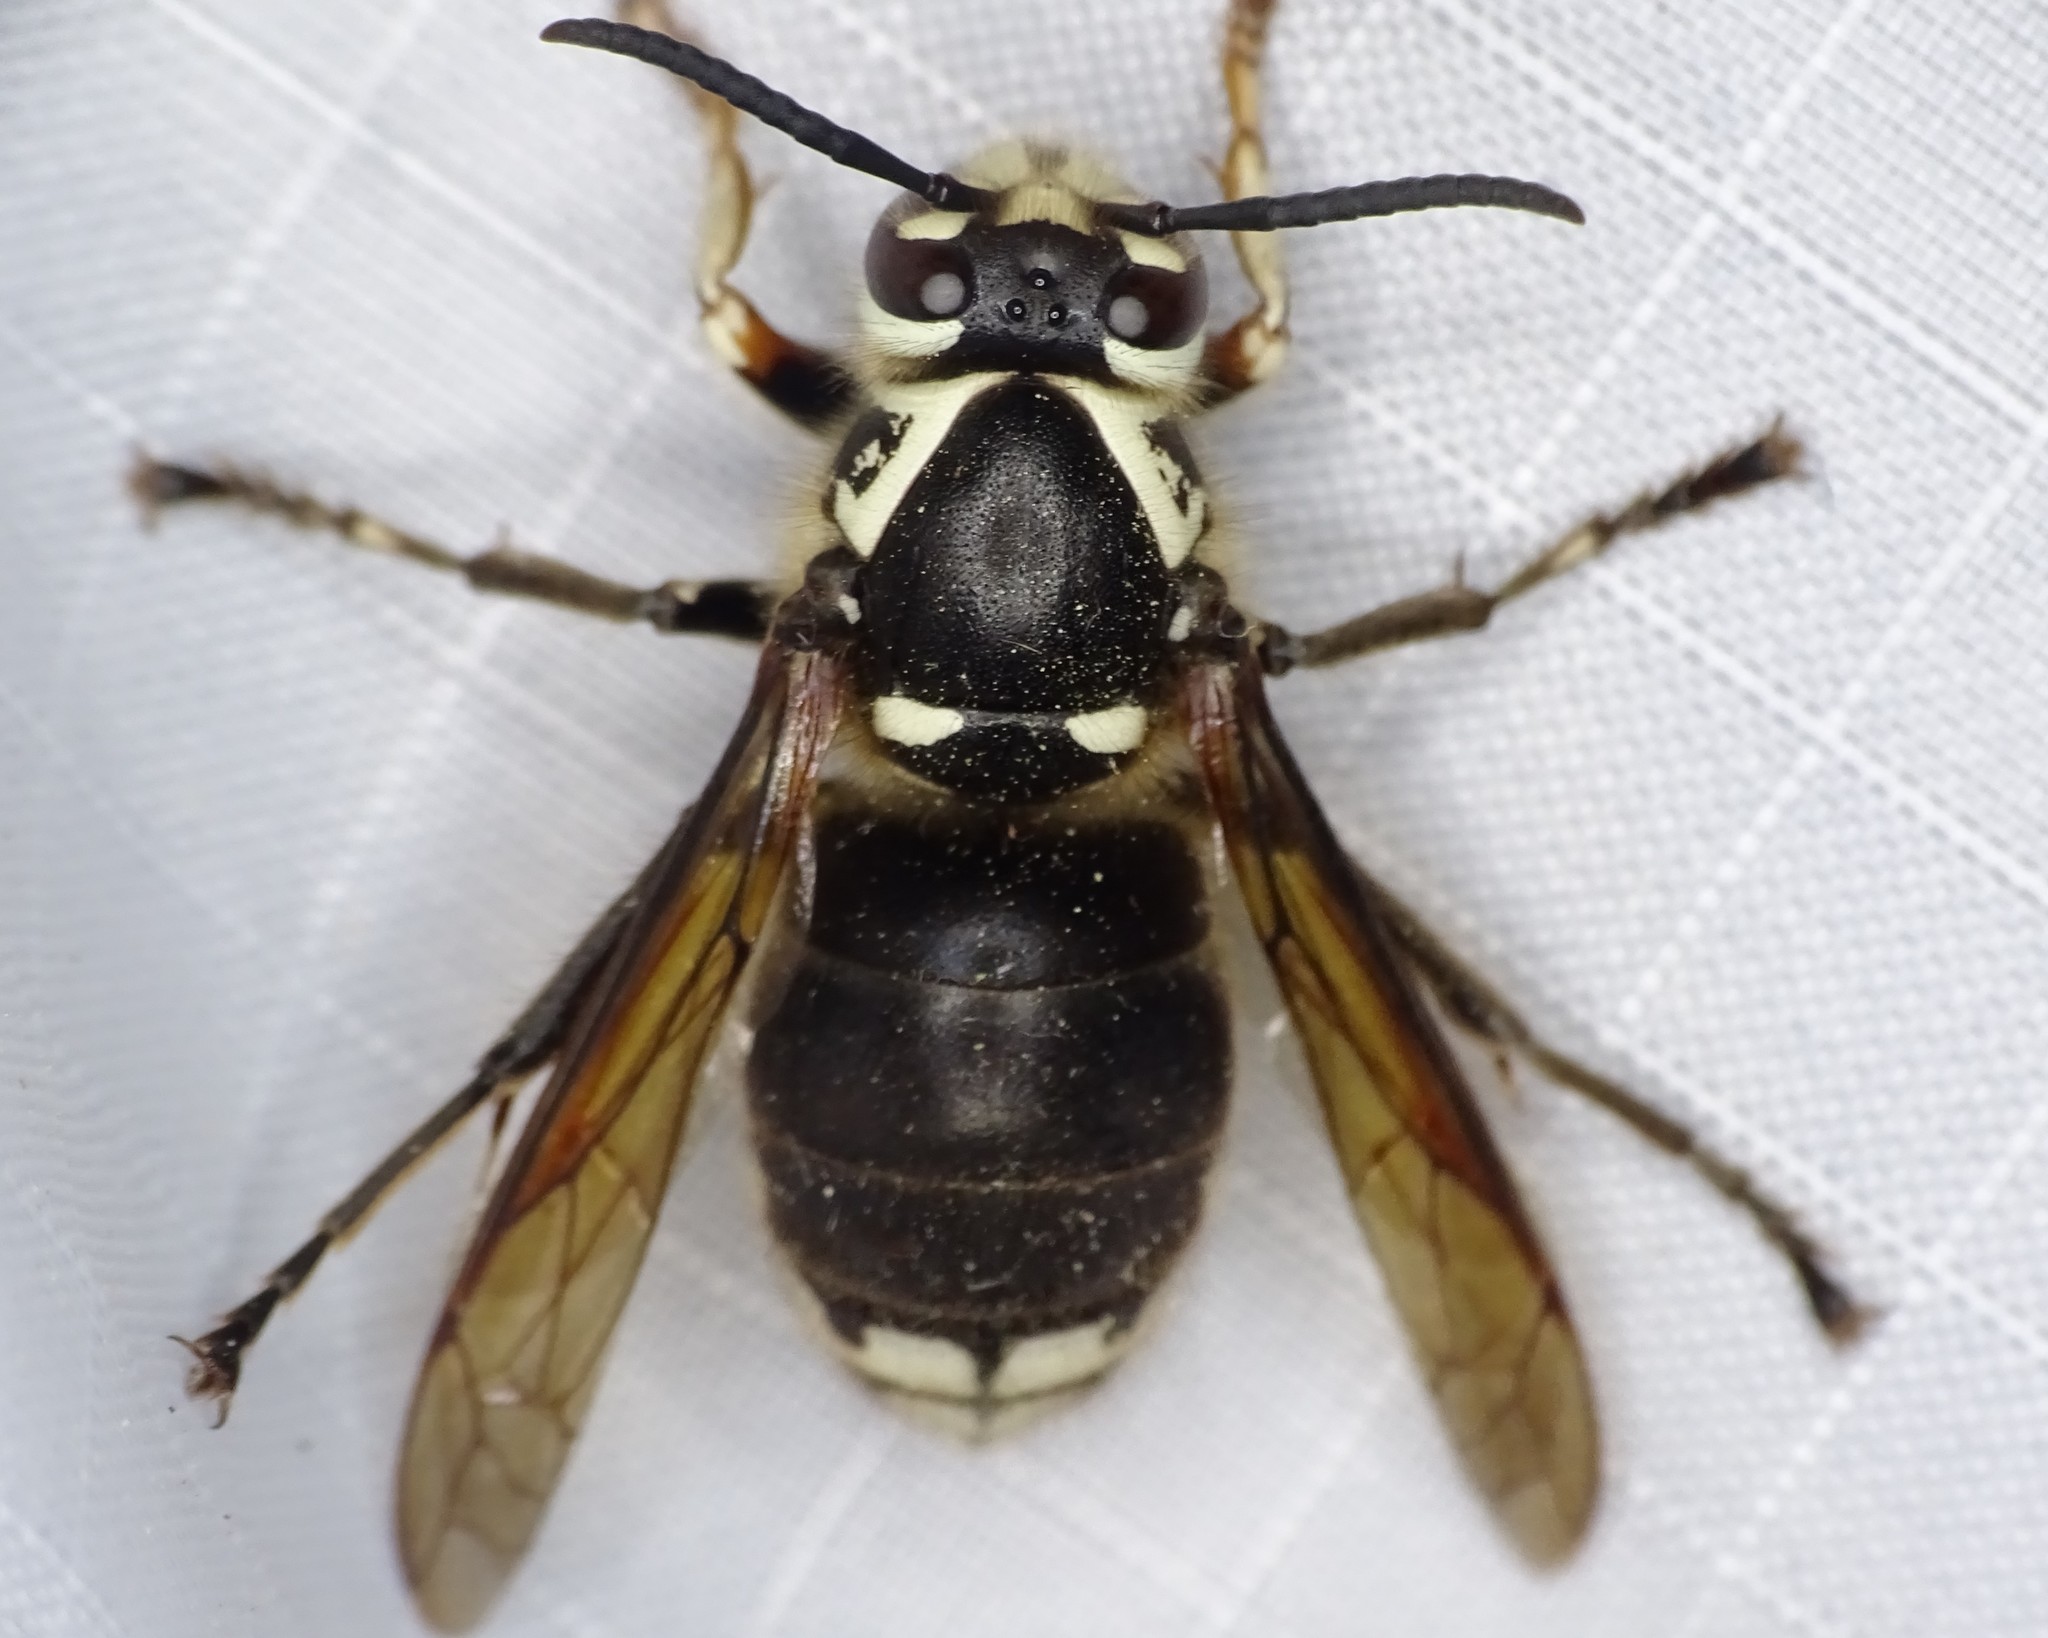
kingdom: Animalia
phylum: Arthropoda
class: Insecta
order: Hymenoptera
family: Vespidae
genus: Dolichovespula
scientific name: Dolichovespula maculata
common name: Bald-faced hornet
